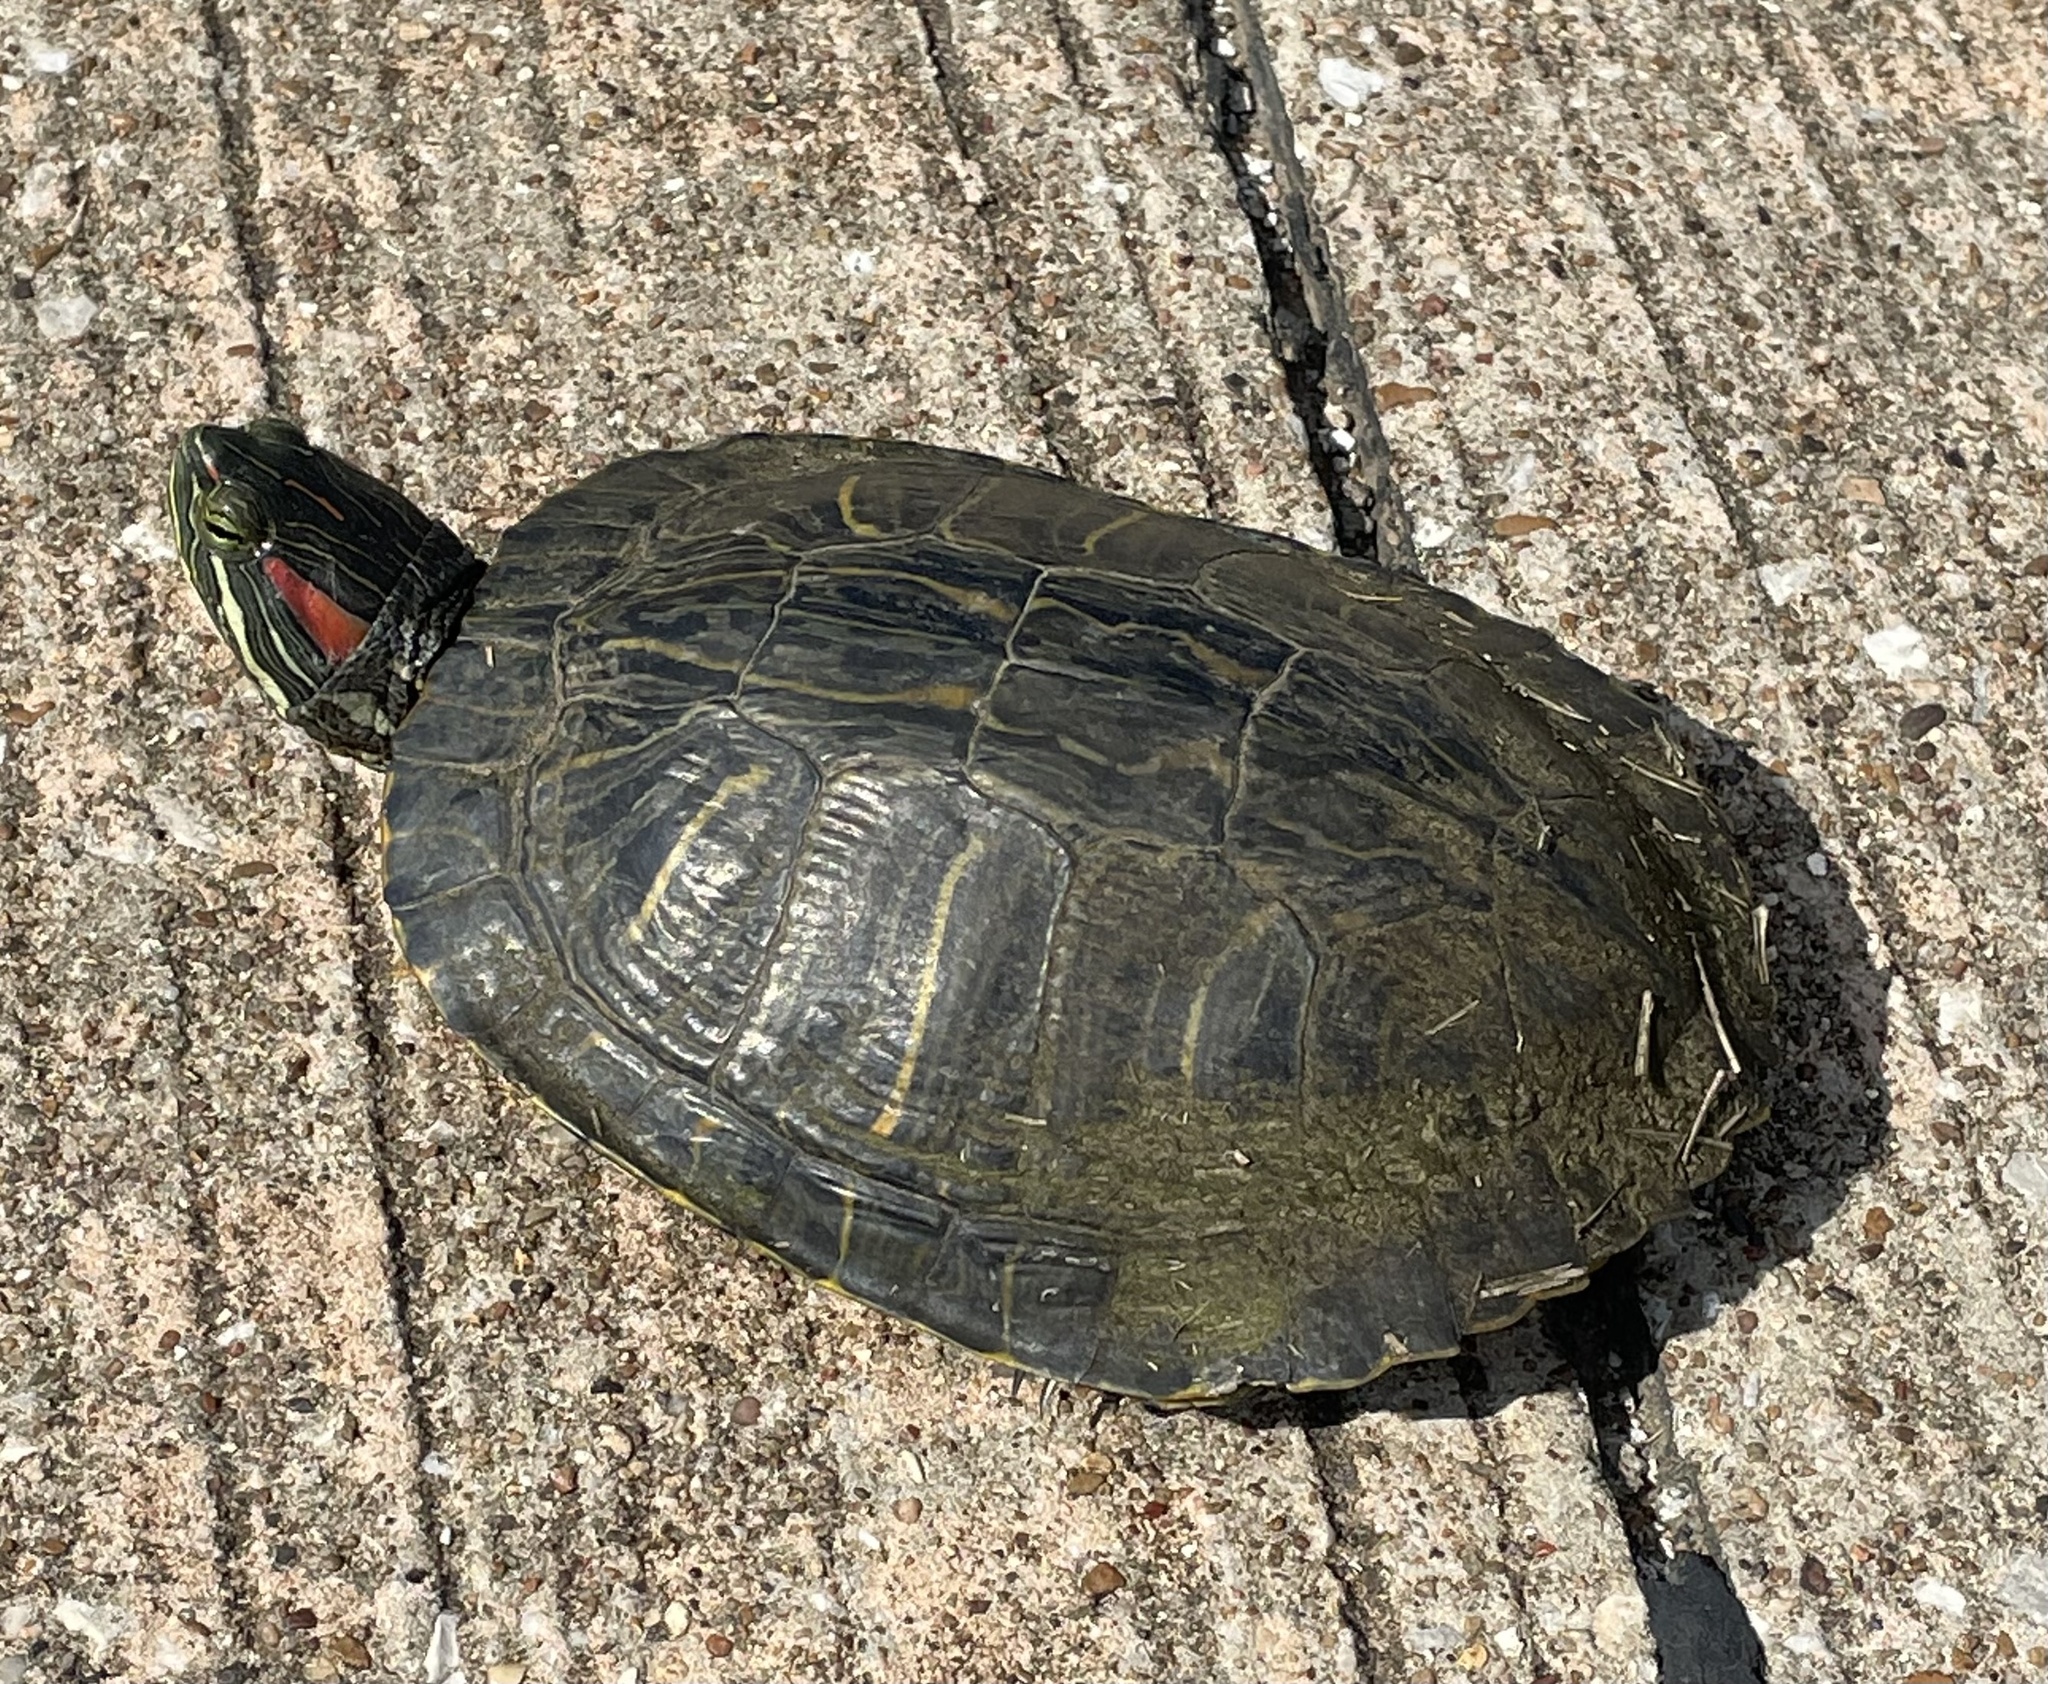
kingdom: Animalia
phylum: Chordata
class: Testudines
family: Emydidae
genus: Trachemys
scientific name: Trachemys scripta
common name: Slider
